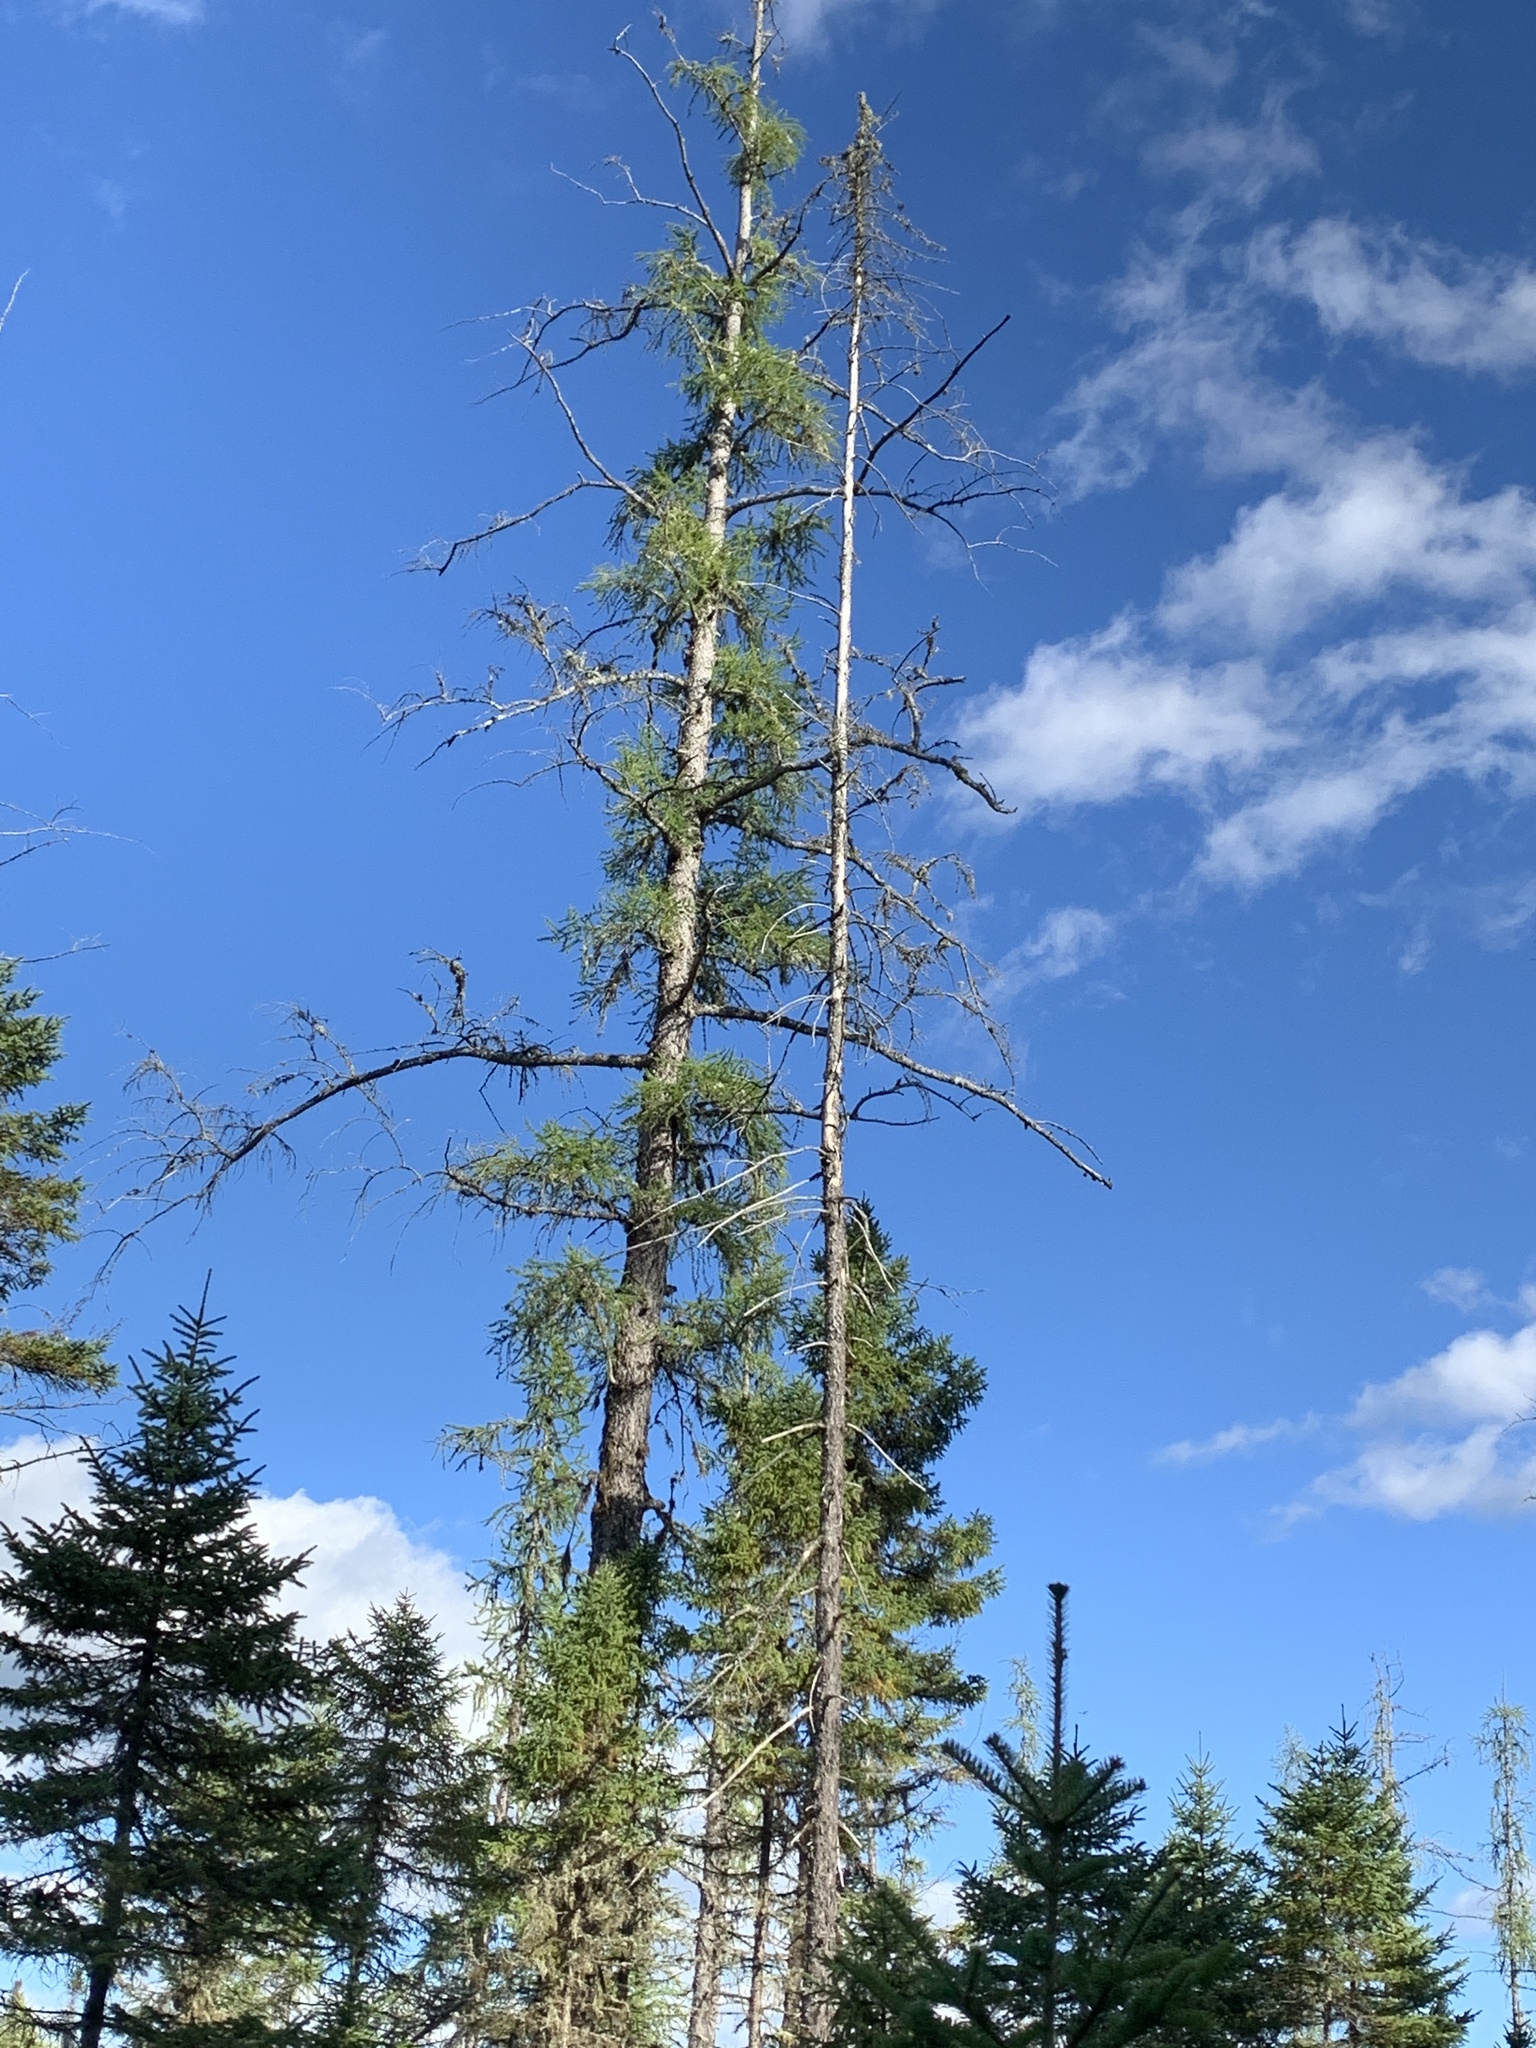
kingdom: Plantae
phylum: Tracheophyta
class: Pinopsida
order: Pinales
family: Pinaceae
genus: Larix
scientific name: Larix laricina
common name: American larch
